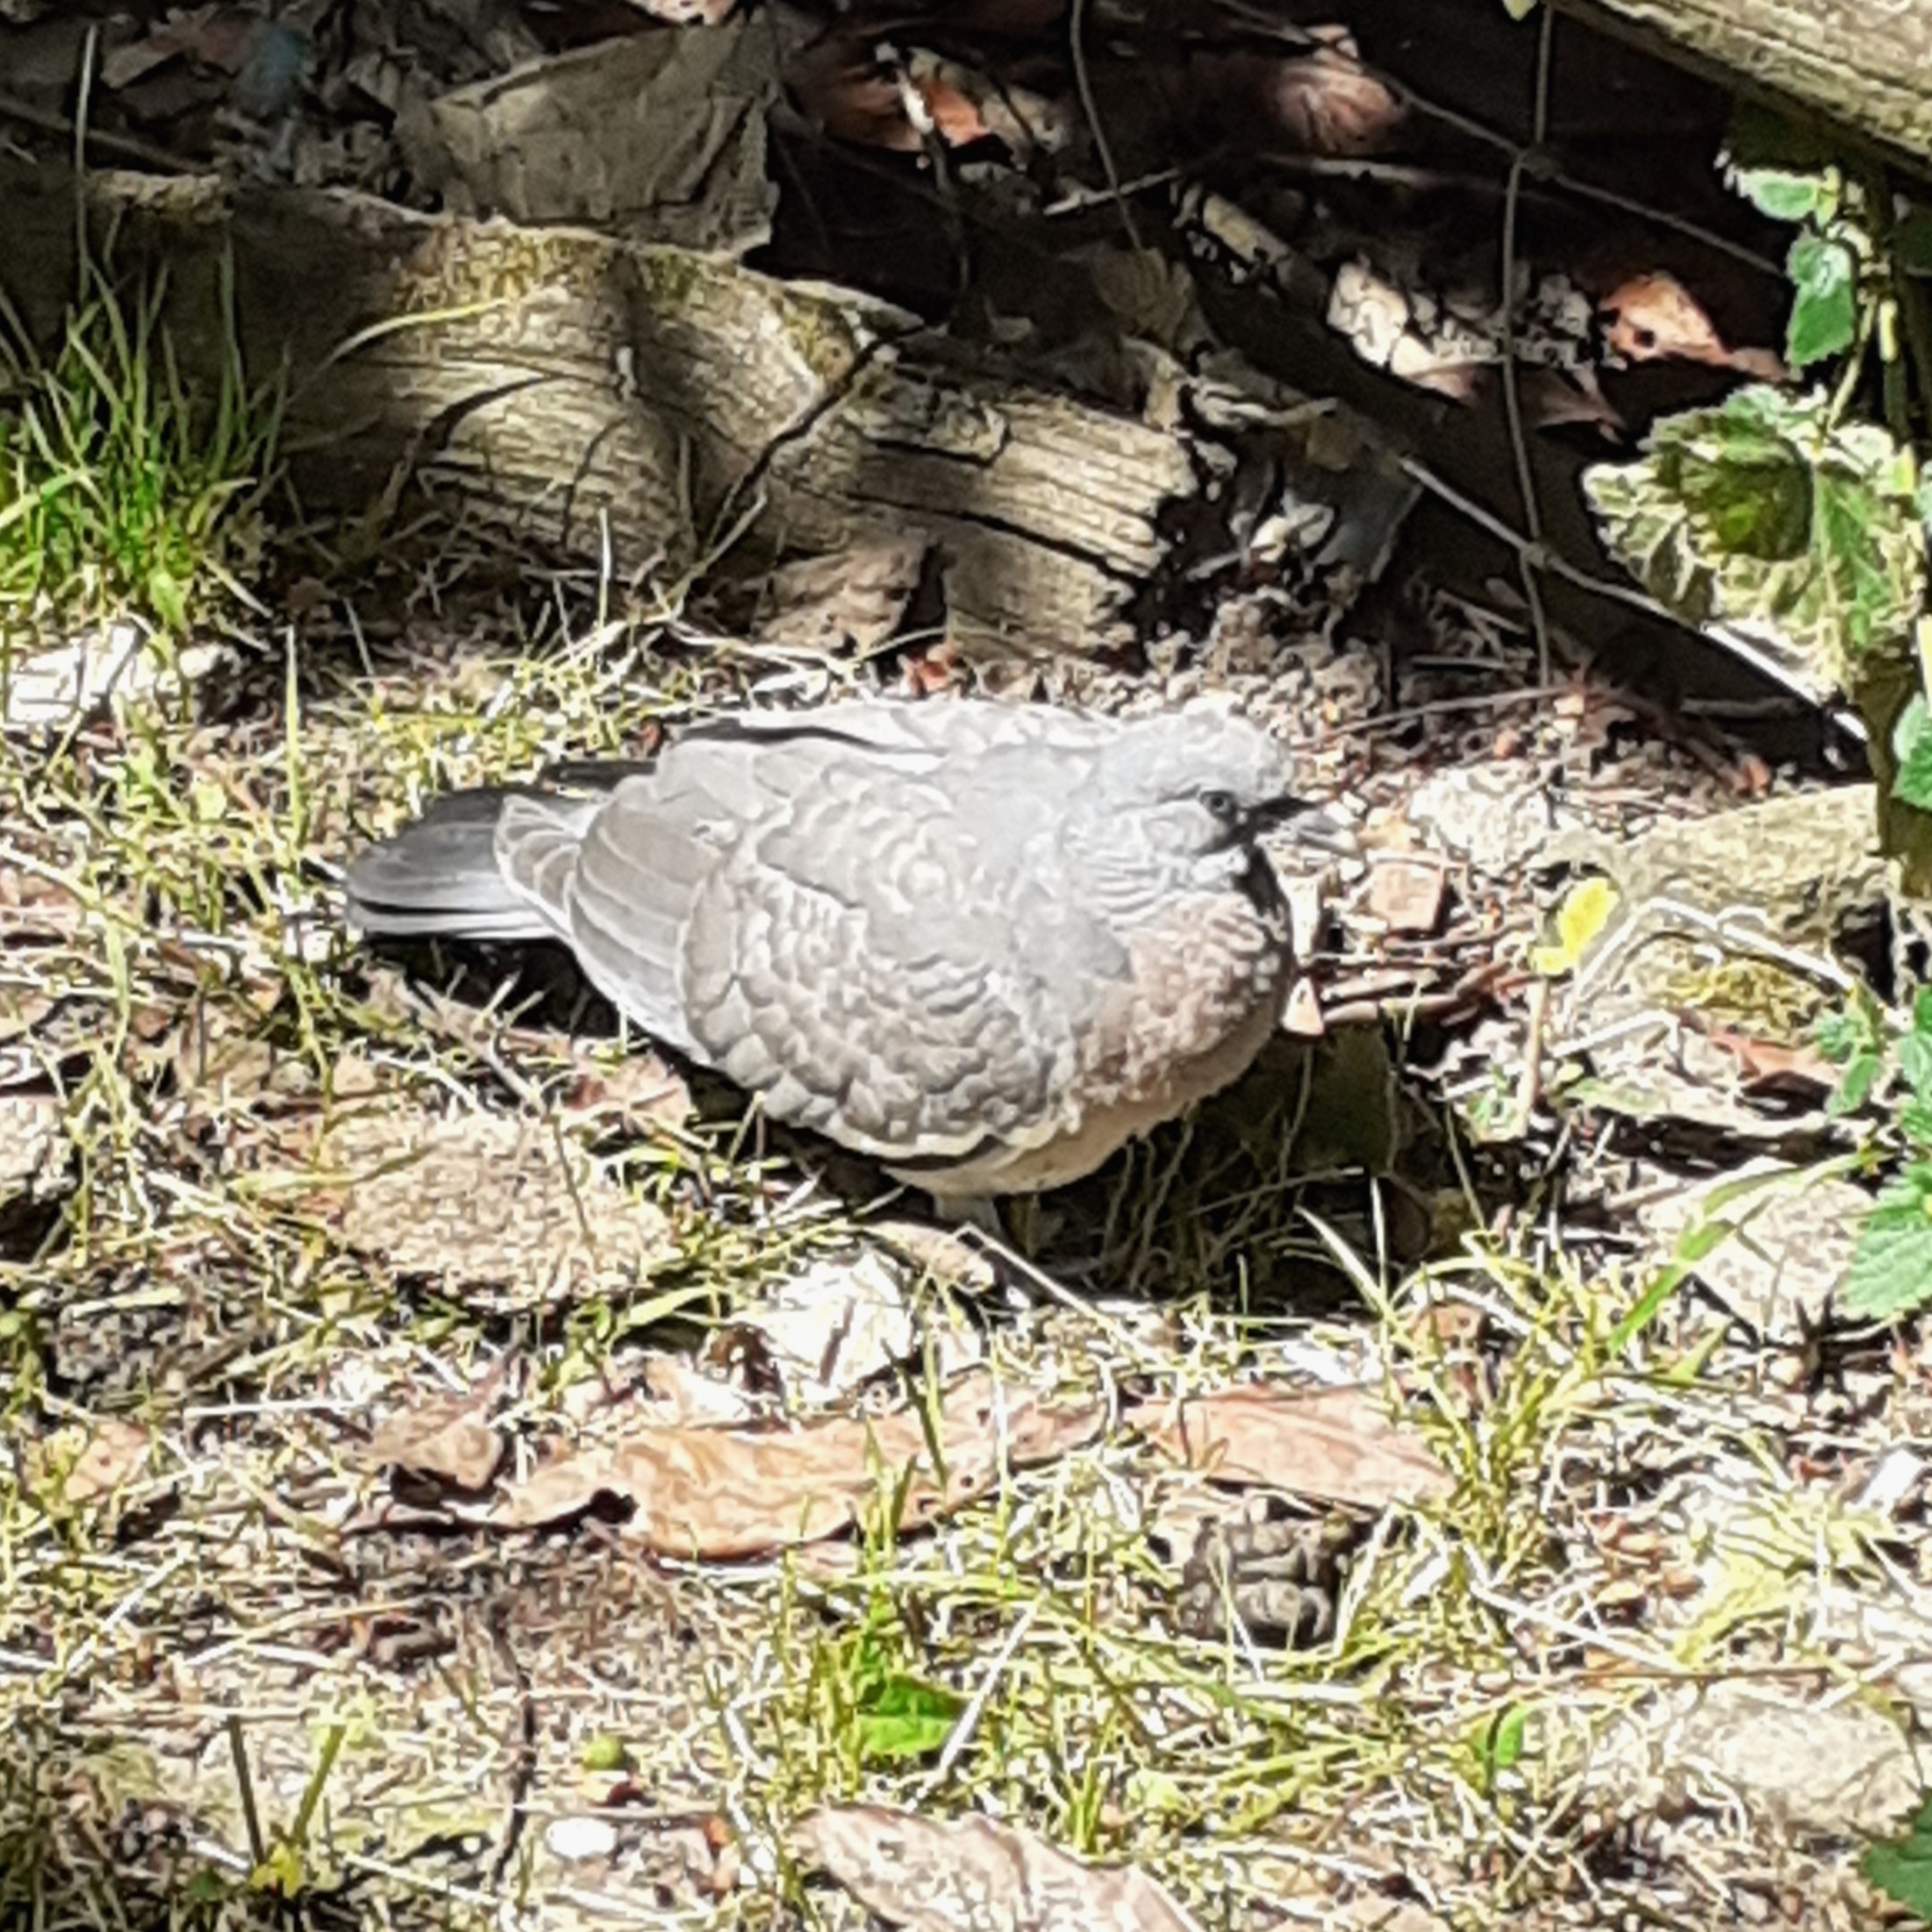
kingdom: Animalia
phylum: Chordata
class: Aves
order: Columbiformes
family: Columbidae
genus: Columba
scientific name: Columba palumbus
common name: Common wood pigeon
